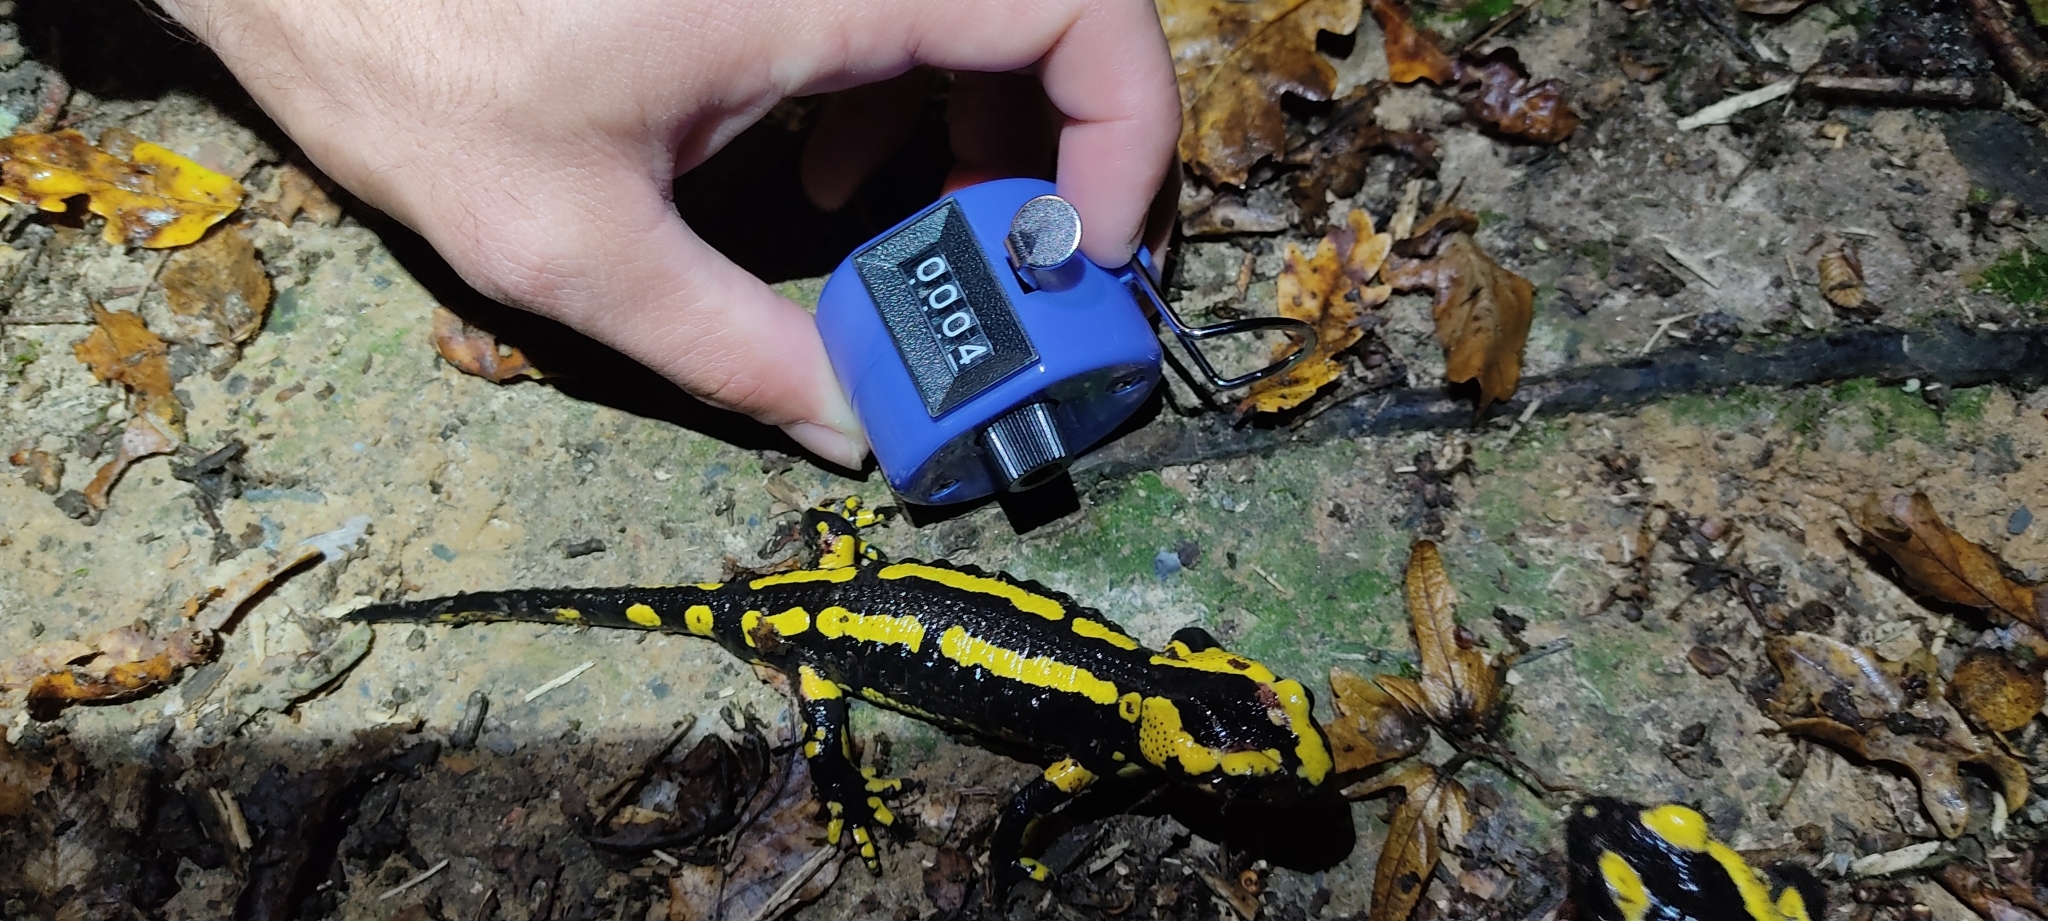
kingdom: Animalia
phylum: Chordata
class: Amphibia
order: Caudata
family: Salamandridae
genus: Salamandra
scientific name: Salamandra salamandra
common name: Fire salamander
